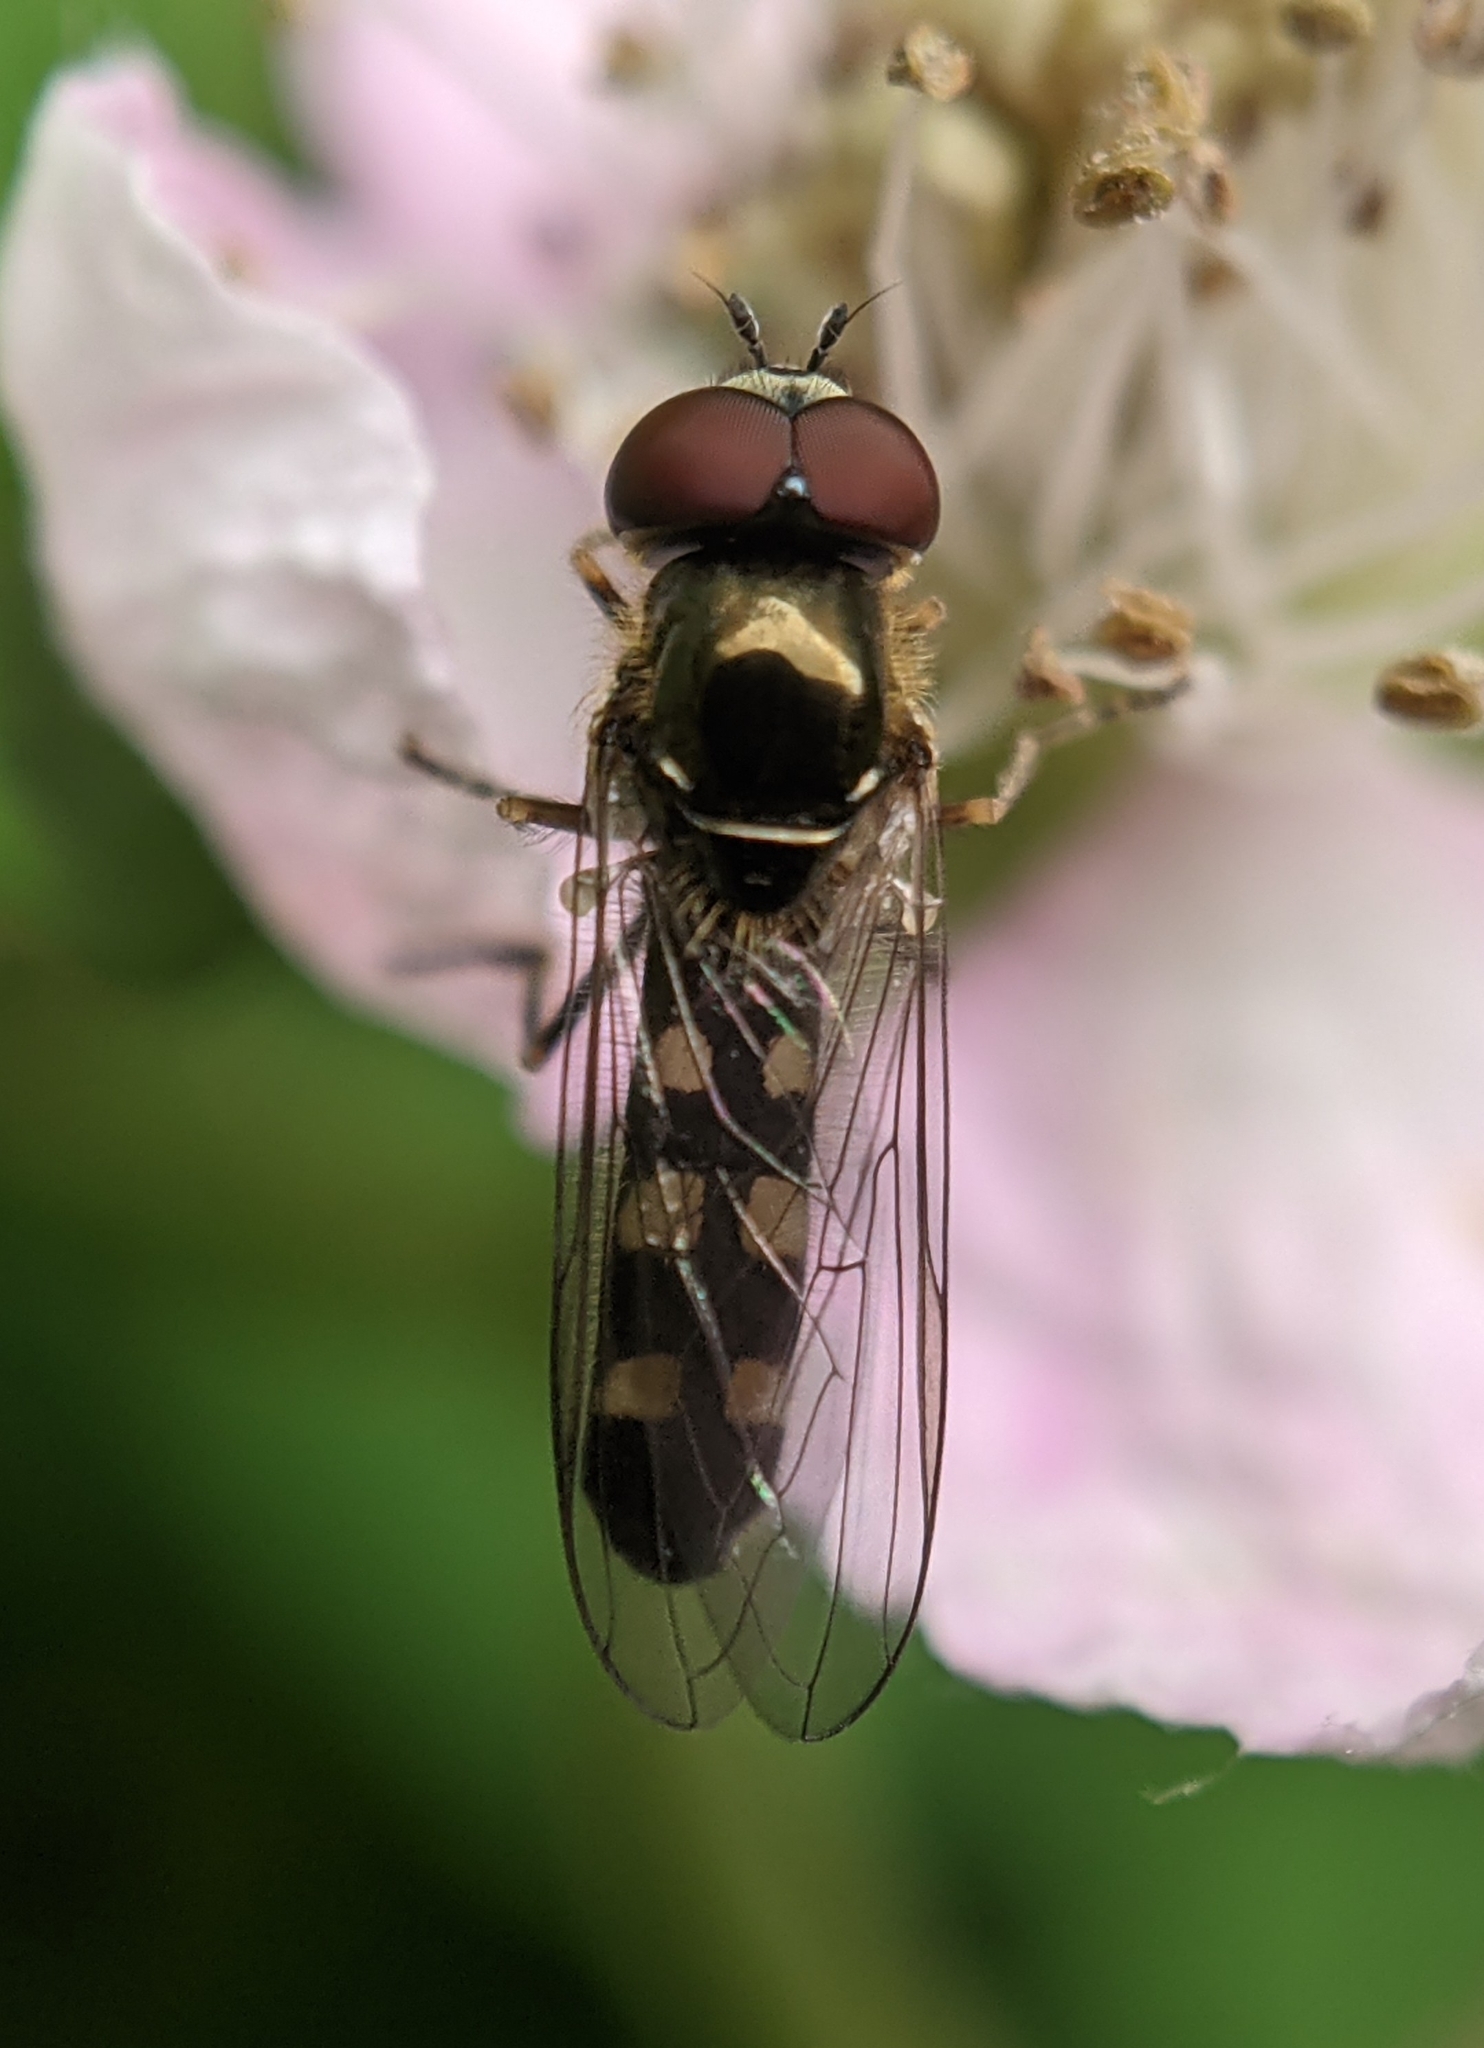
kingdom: Animalia
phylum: Arthropoda
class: Insecta
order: Diptera
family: Syrphidae
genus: Platycheirus
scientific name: Platycheirus scutatus
